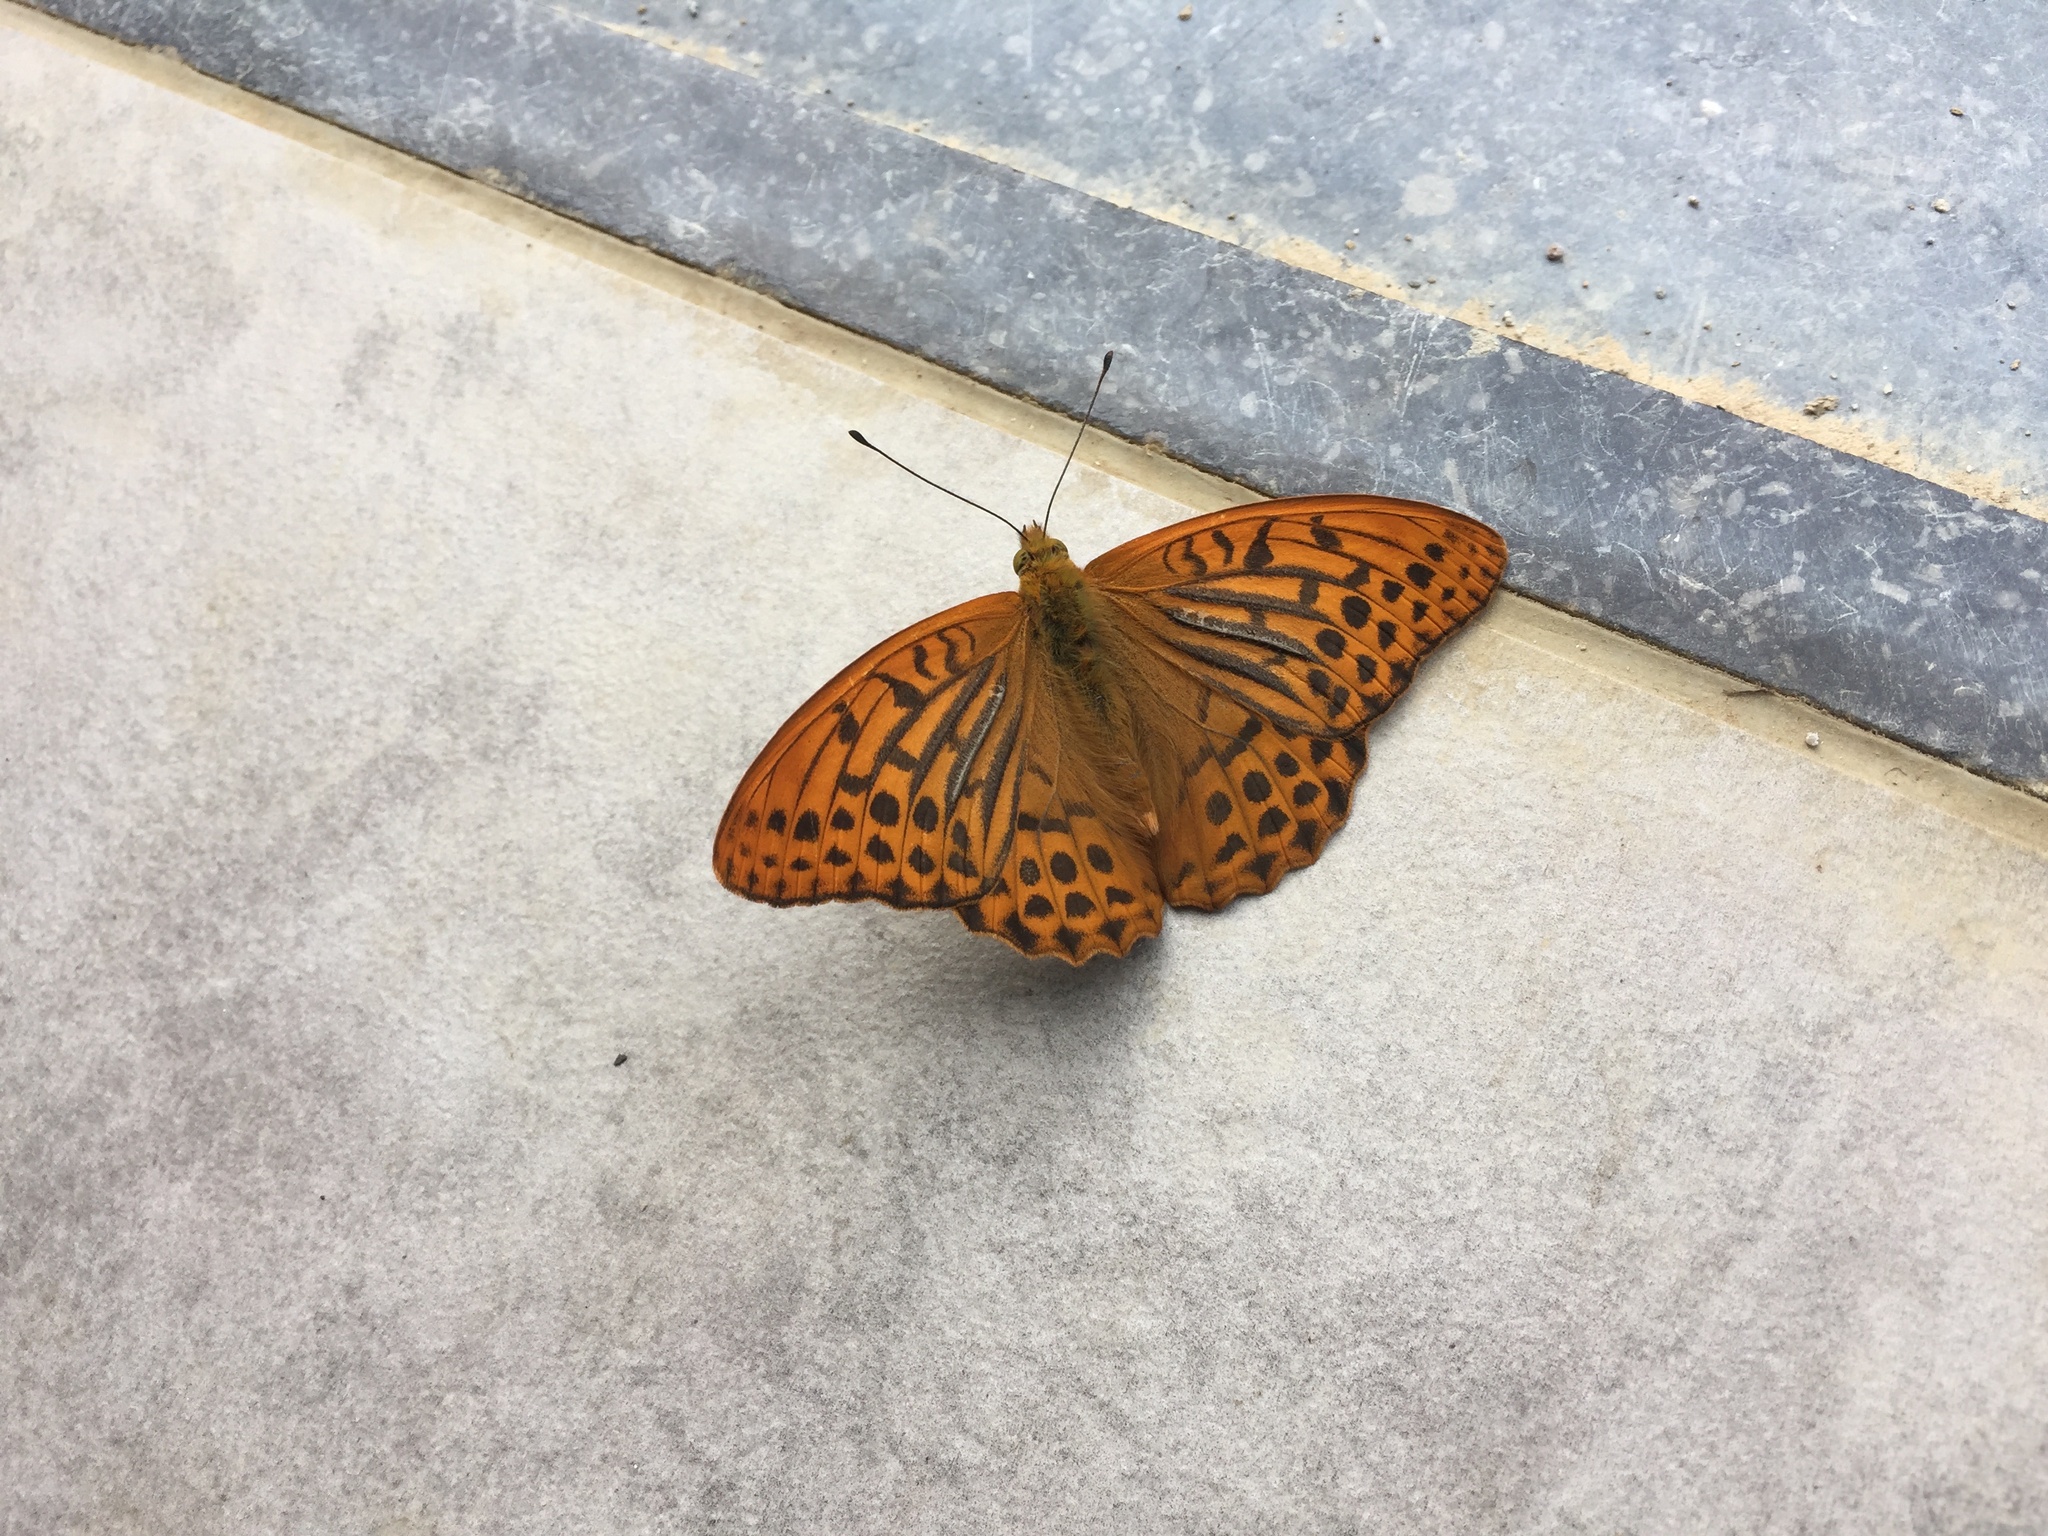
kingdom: Animalia
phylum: Arthropoda
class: Insecta
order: Lepidoptera
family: Nymphalidae
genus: Argynnis
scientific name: Argynnis paphia
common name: Silver-washed fritillary
